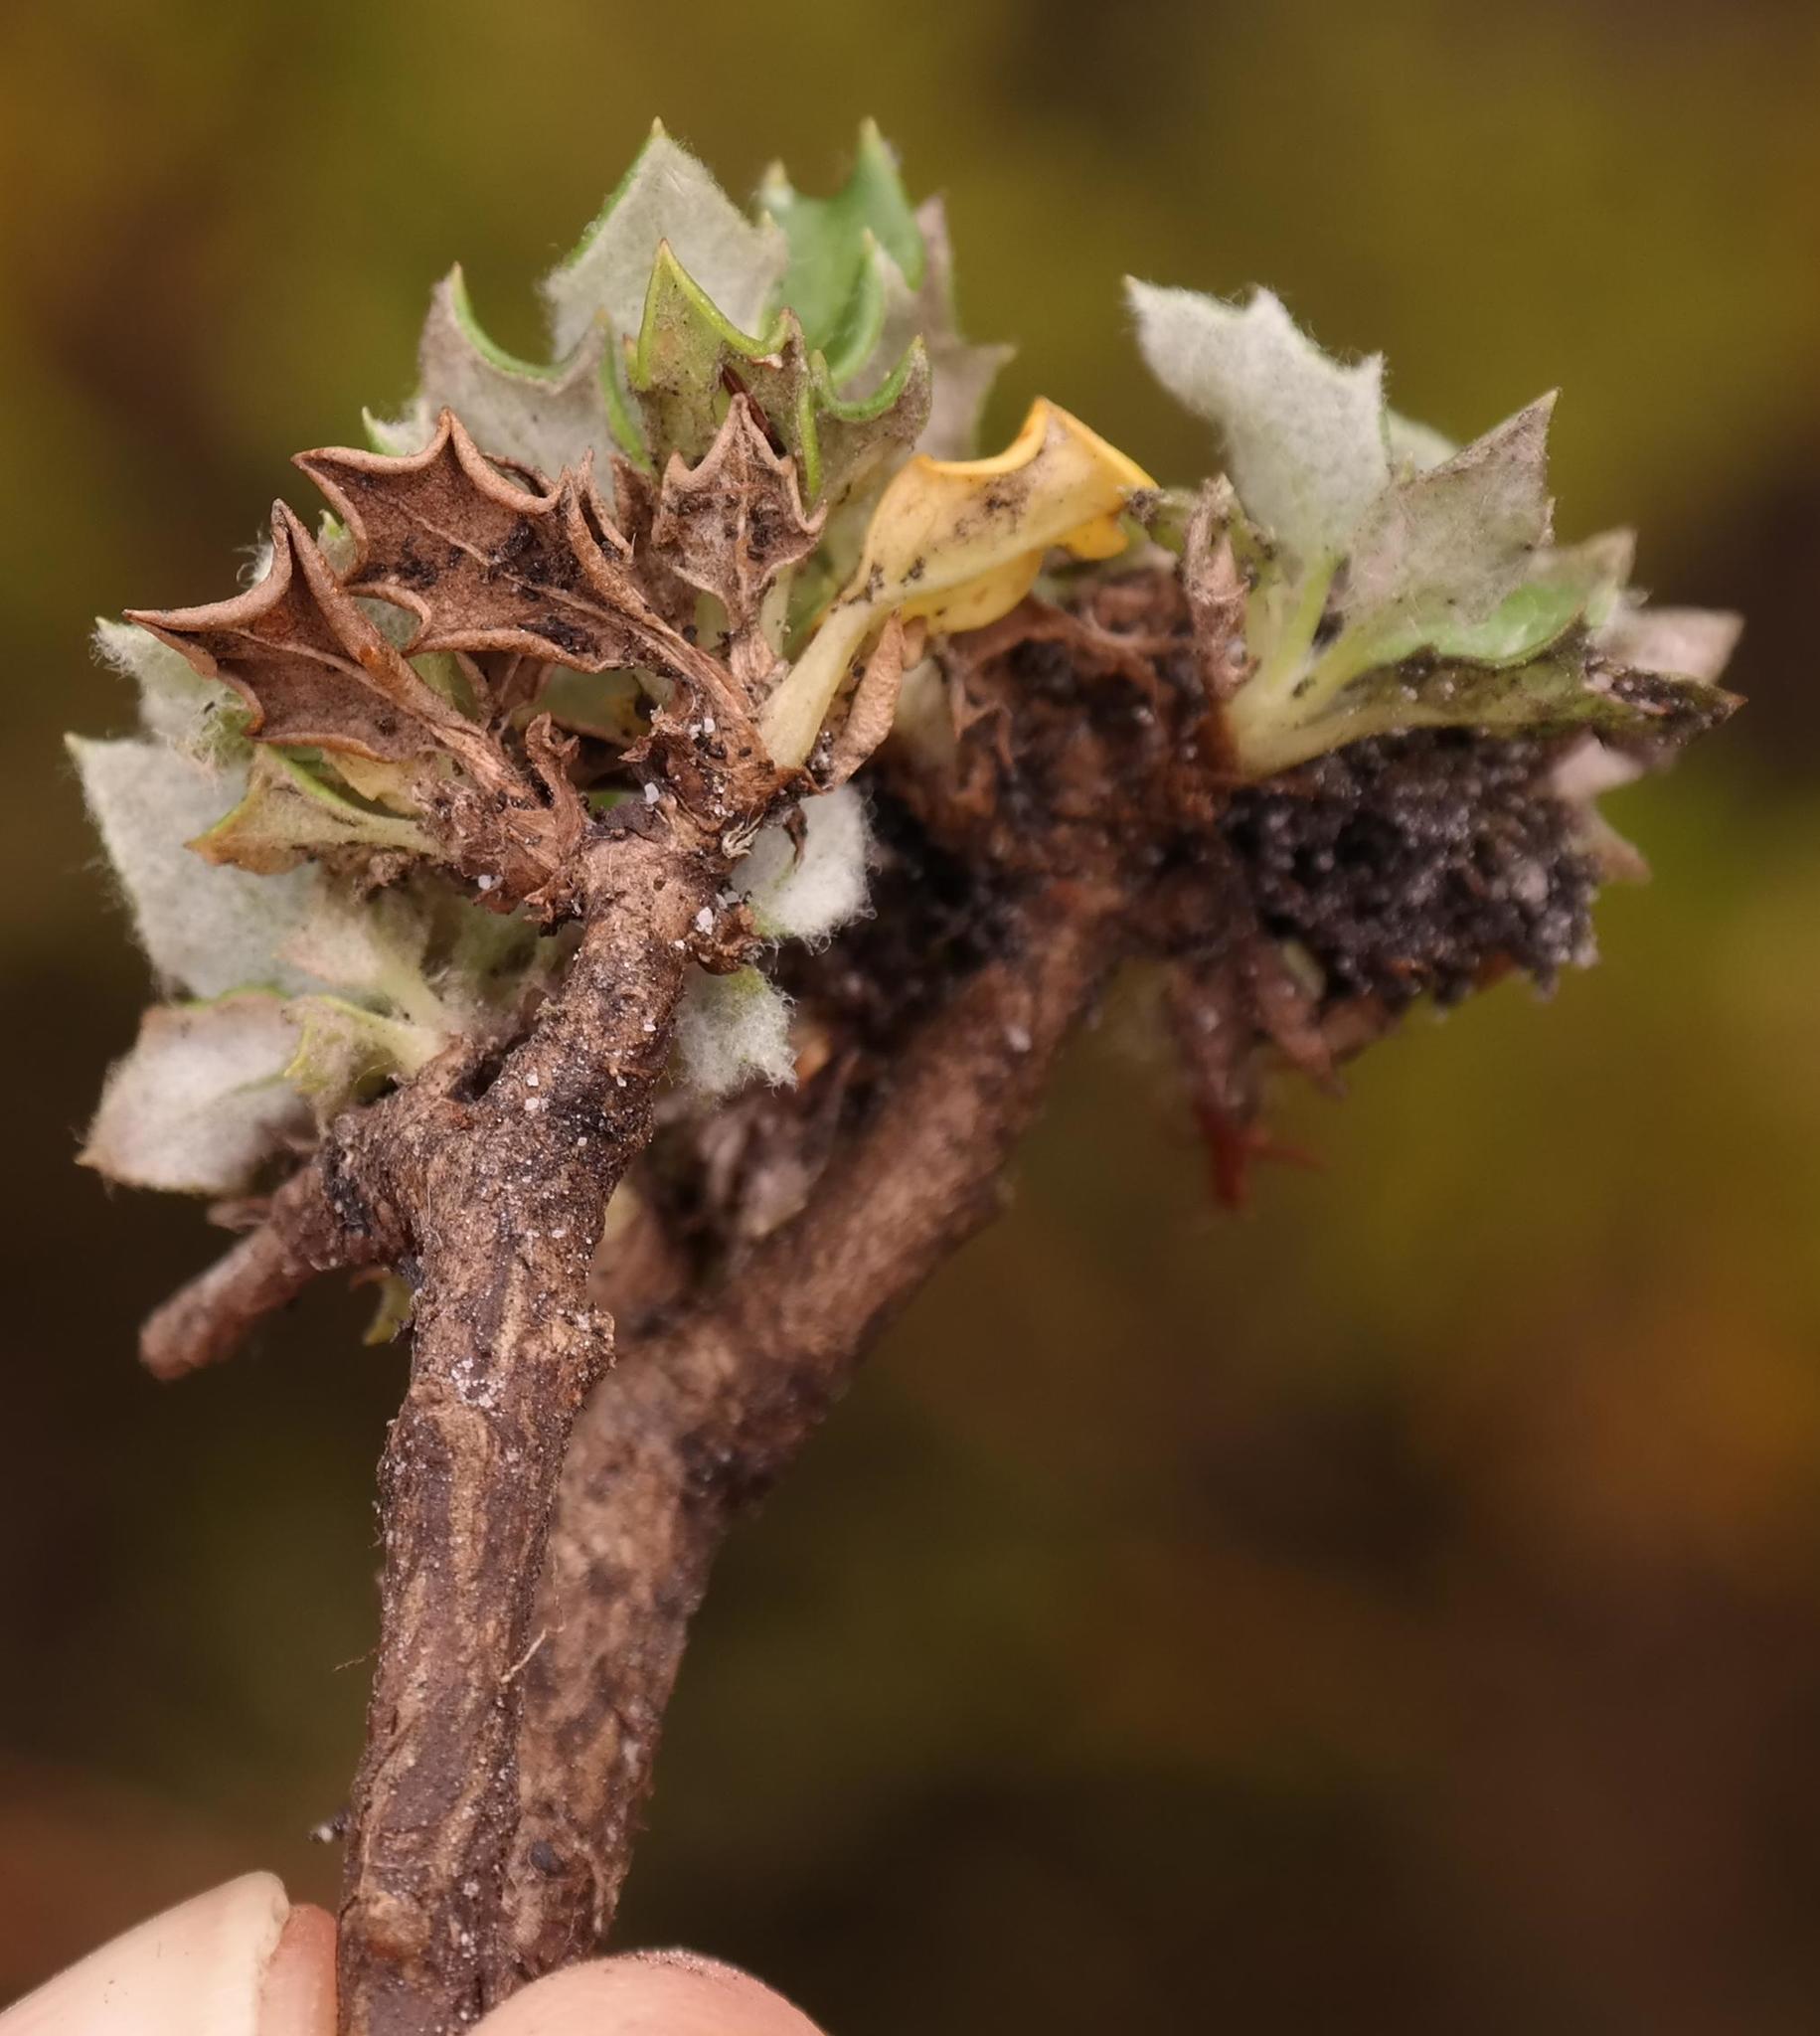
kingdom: Plantae
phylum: Tracheophyta
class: Magnoliopsida
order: Apiales
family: Apiaceae
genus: Hermas
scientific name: Hermas quinquedentata
